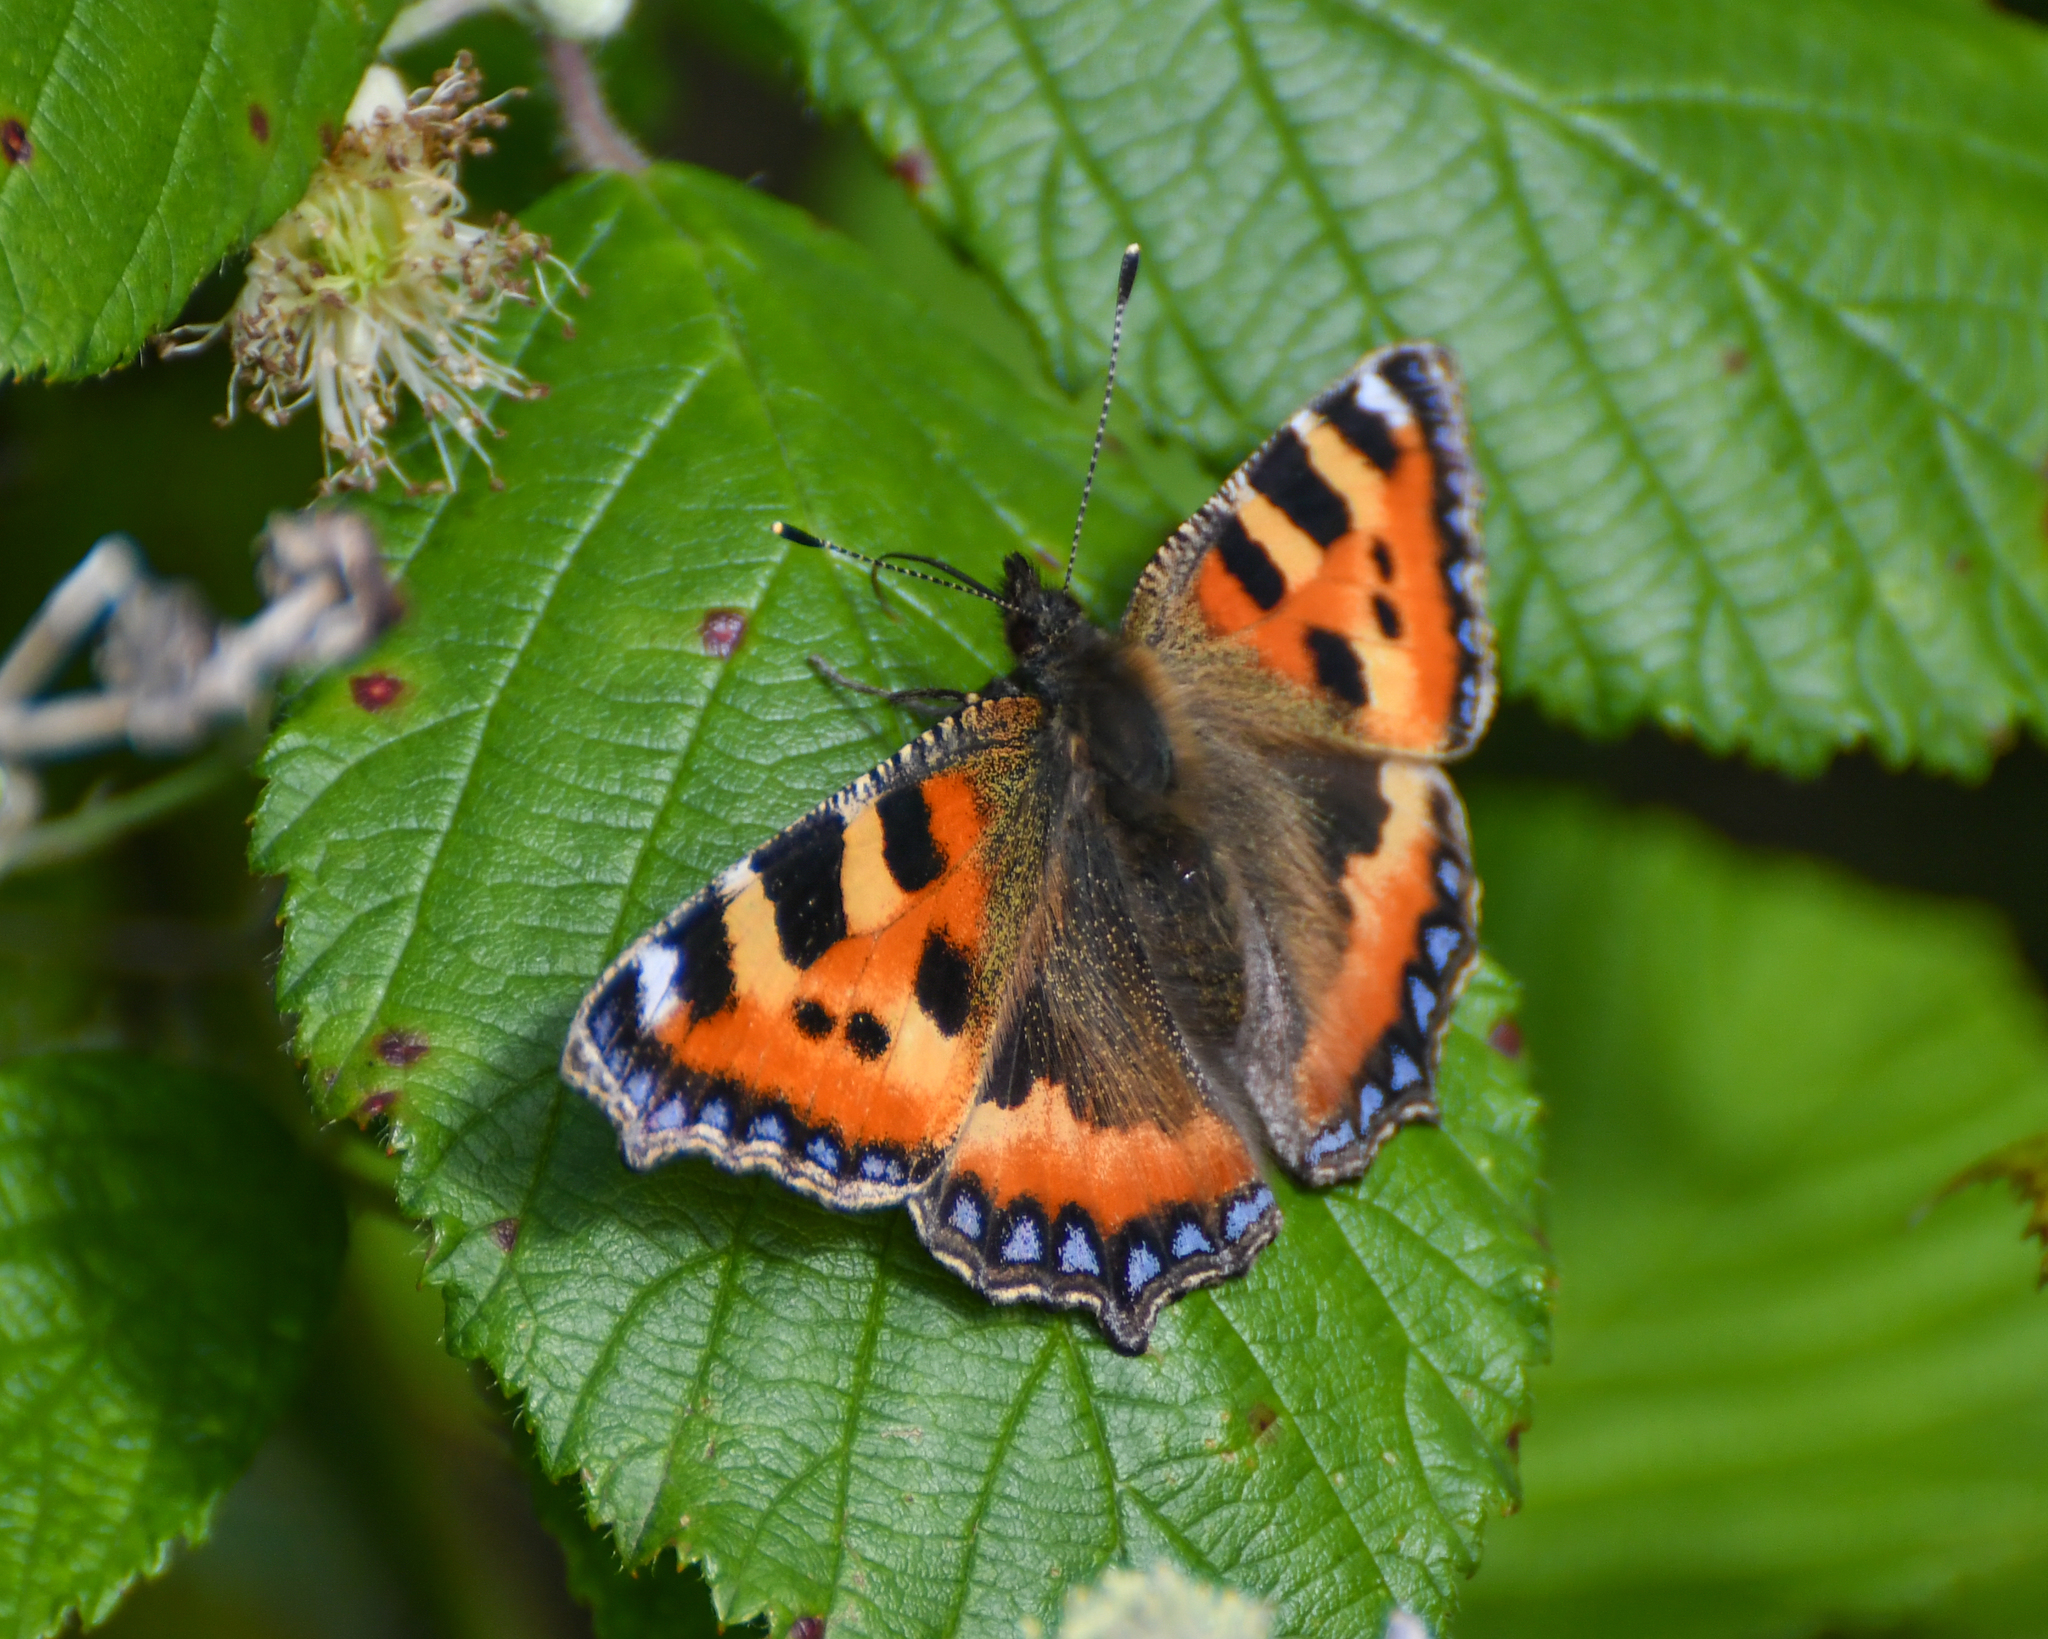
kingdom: Animalia
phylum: Arthropoda
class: Insecta
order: Lepidoptera
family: Nymphalidae
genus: Aglais
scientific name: Aglais urticae
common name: Small tortoiseshell
